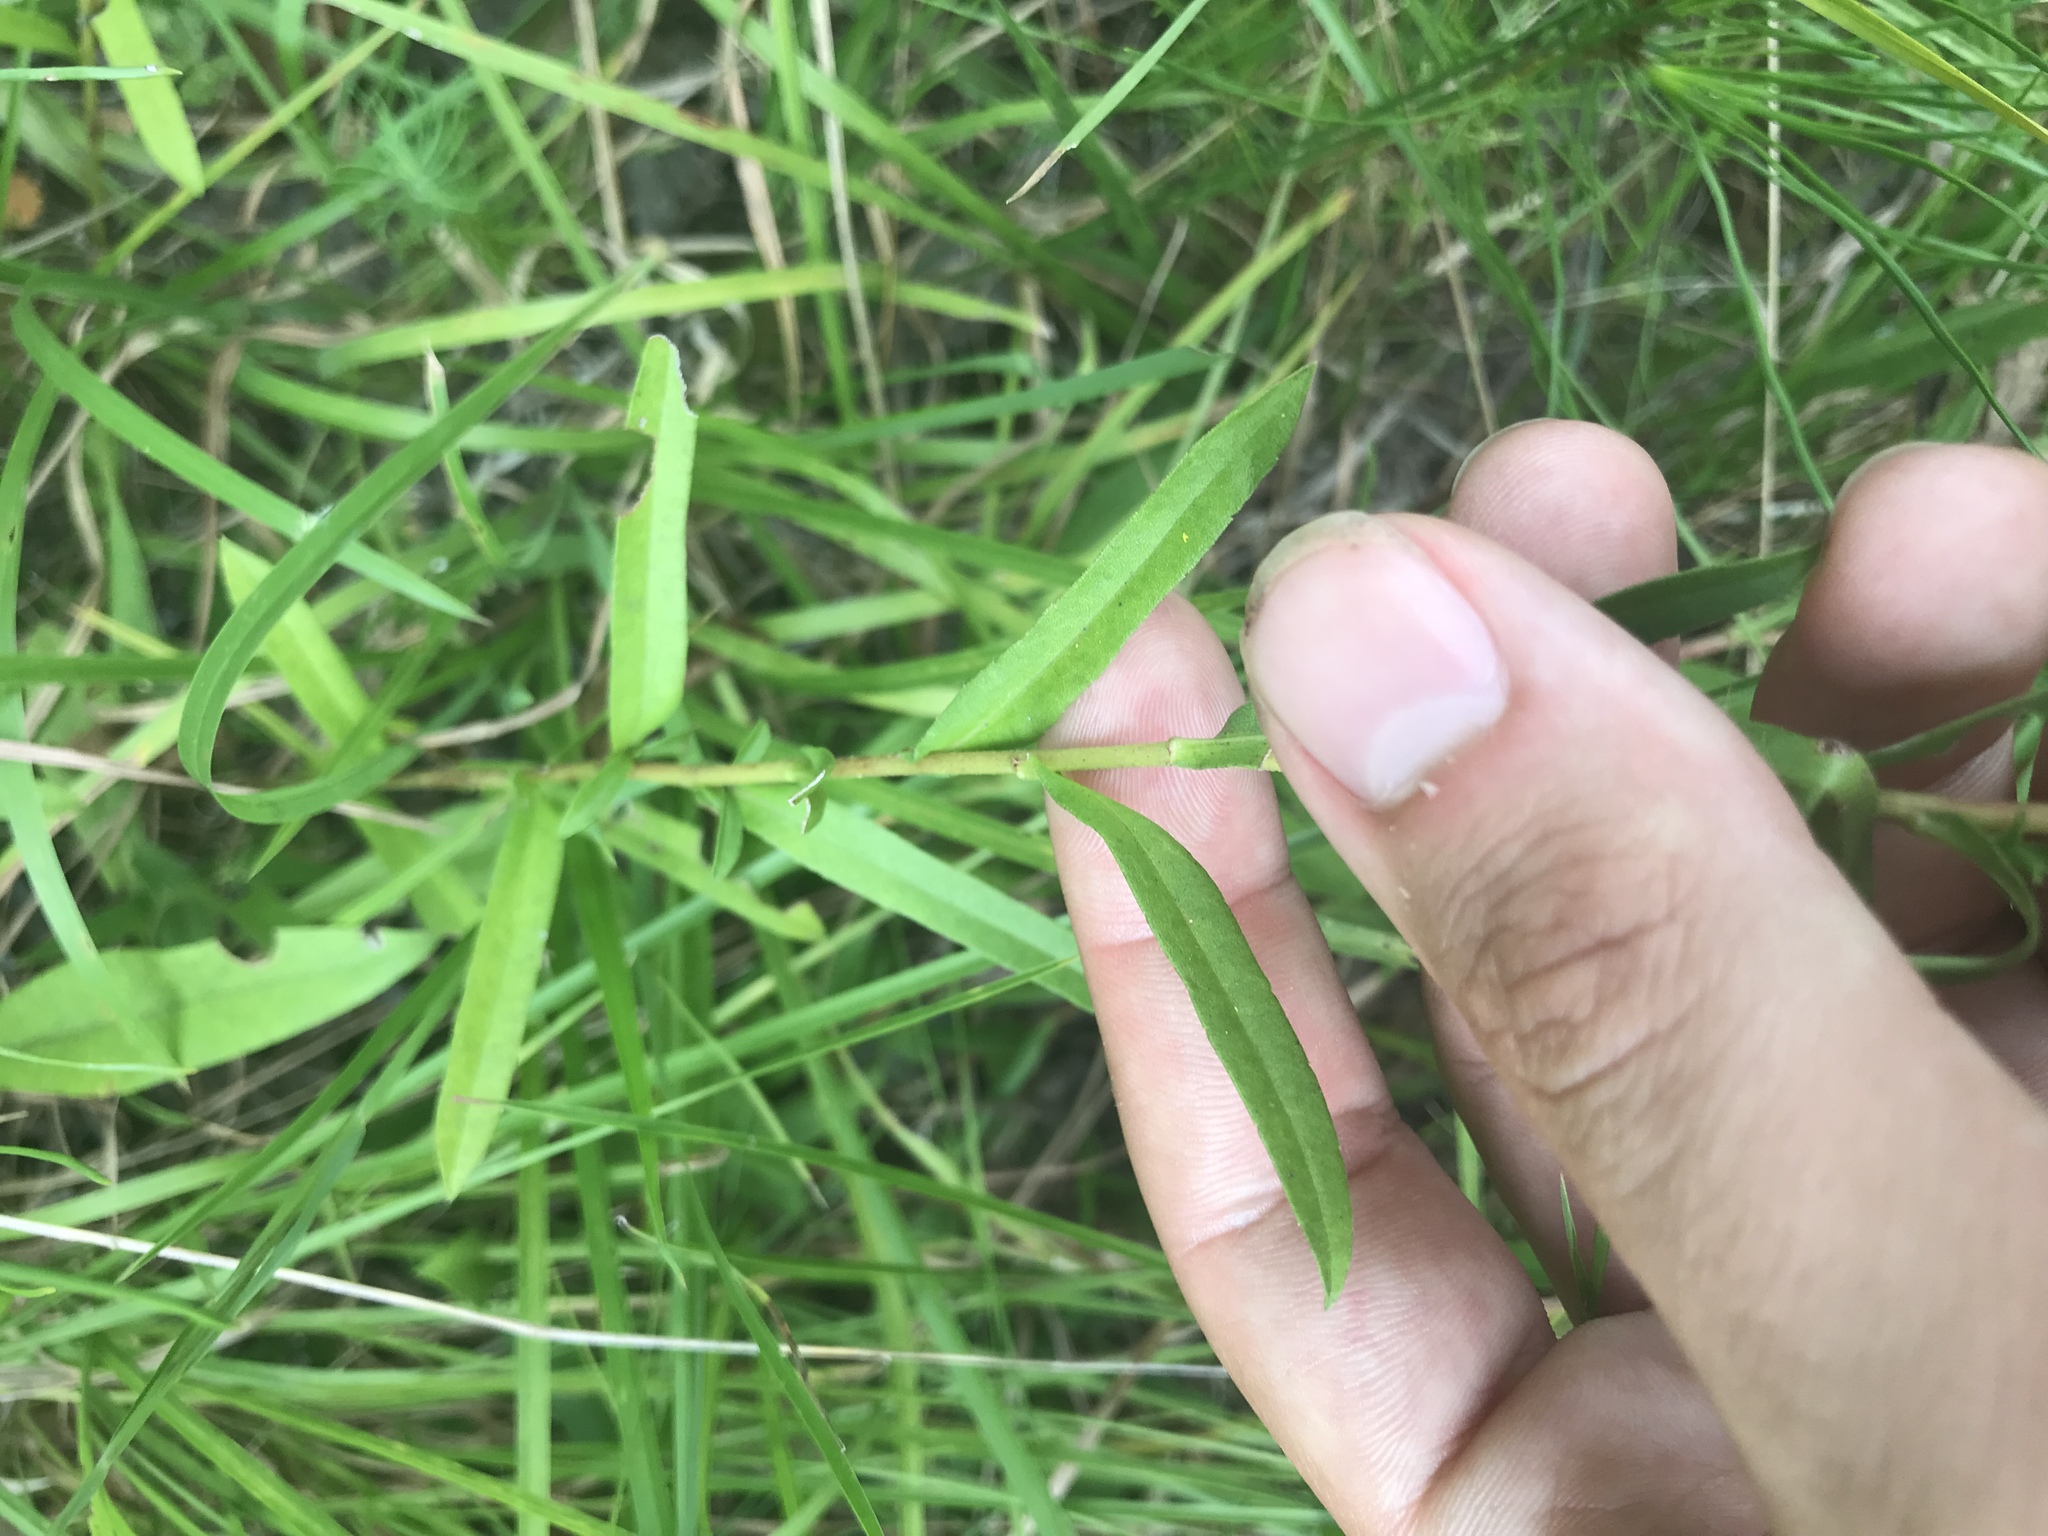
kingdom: Plantae
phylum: Tracheophyta
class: Magnoliopsida
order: Asterales
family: Asteraceae
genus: Eurybia
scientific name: Eurybia compacta
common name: Slender aster
